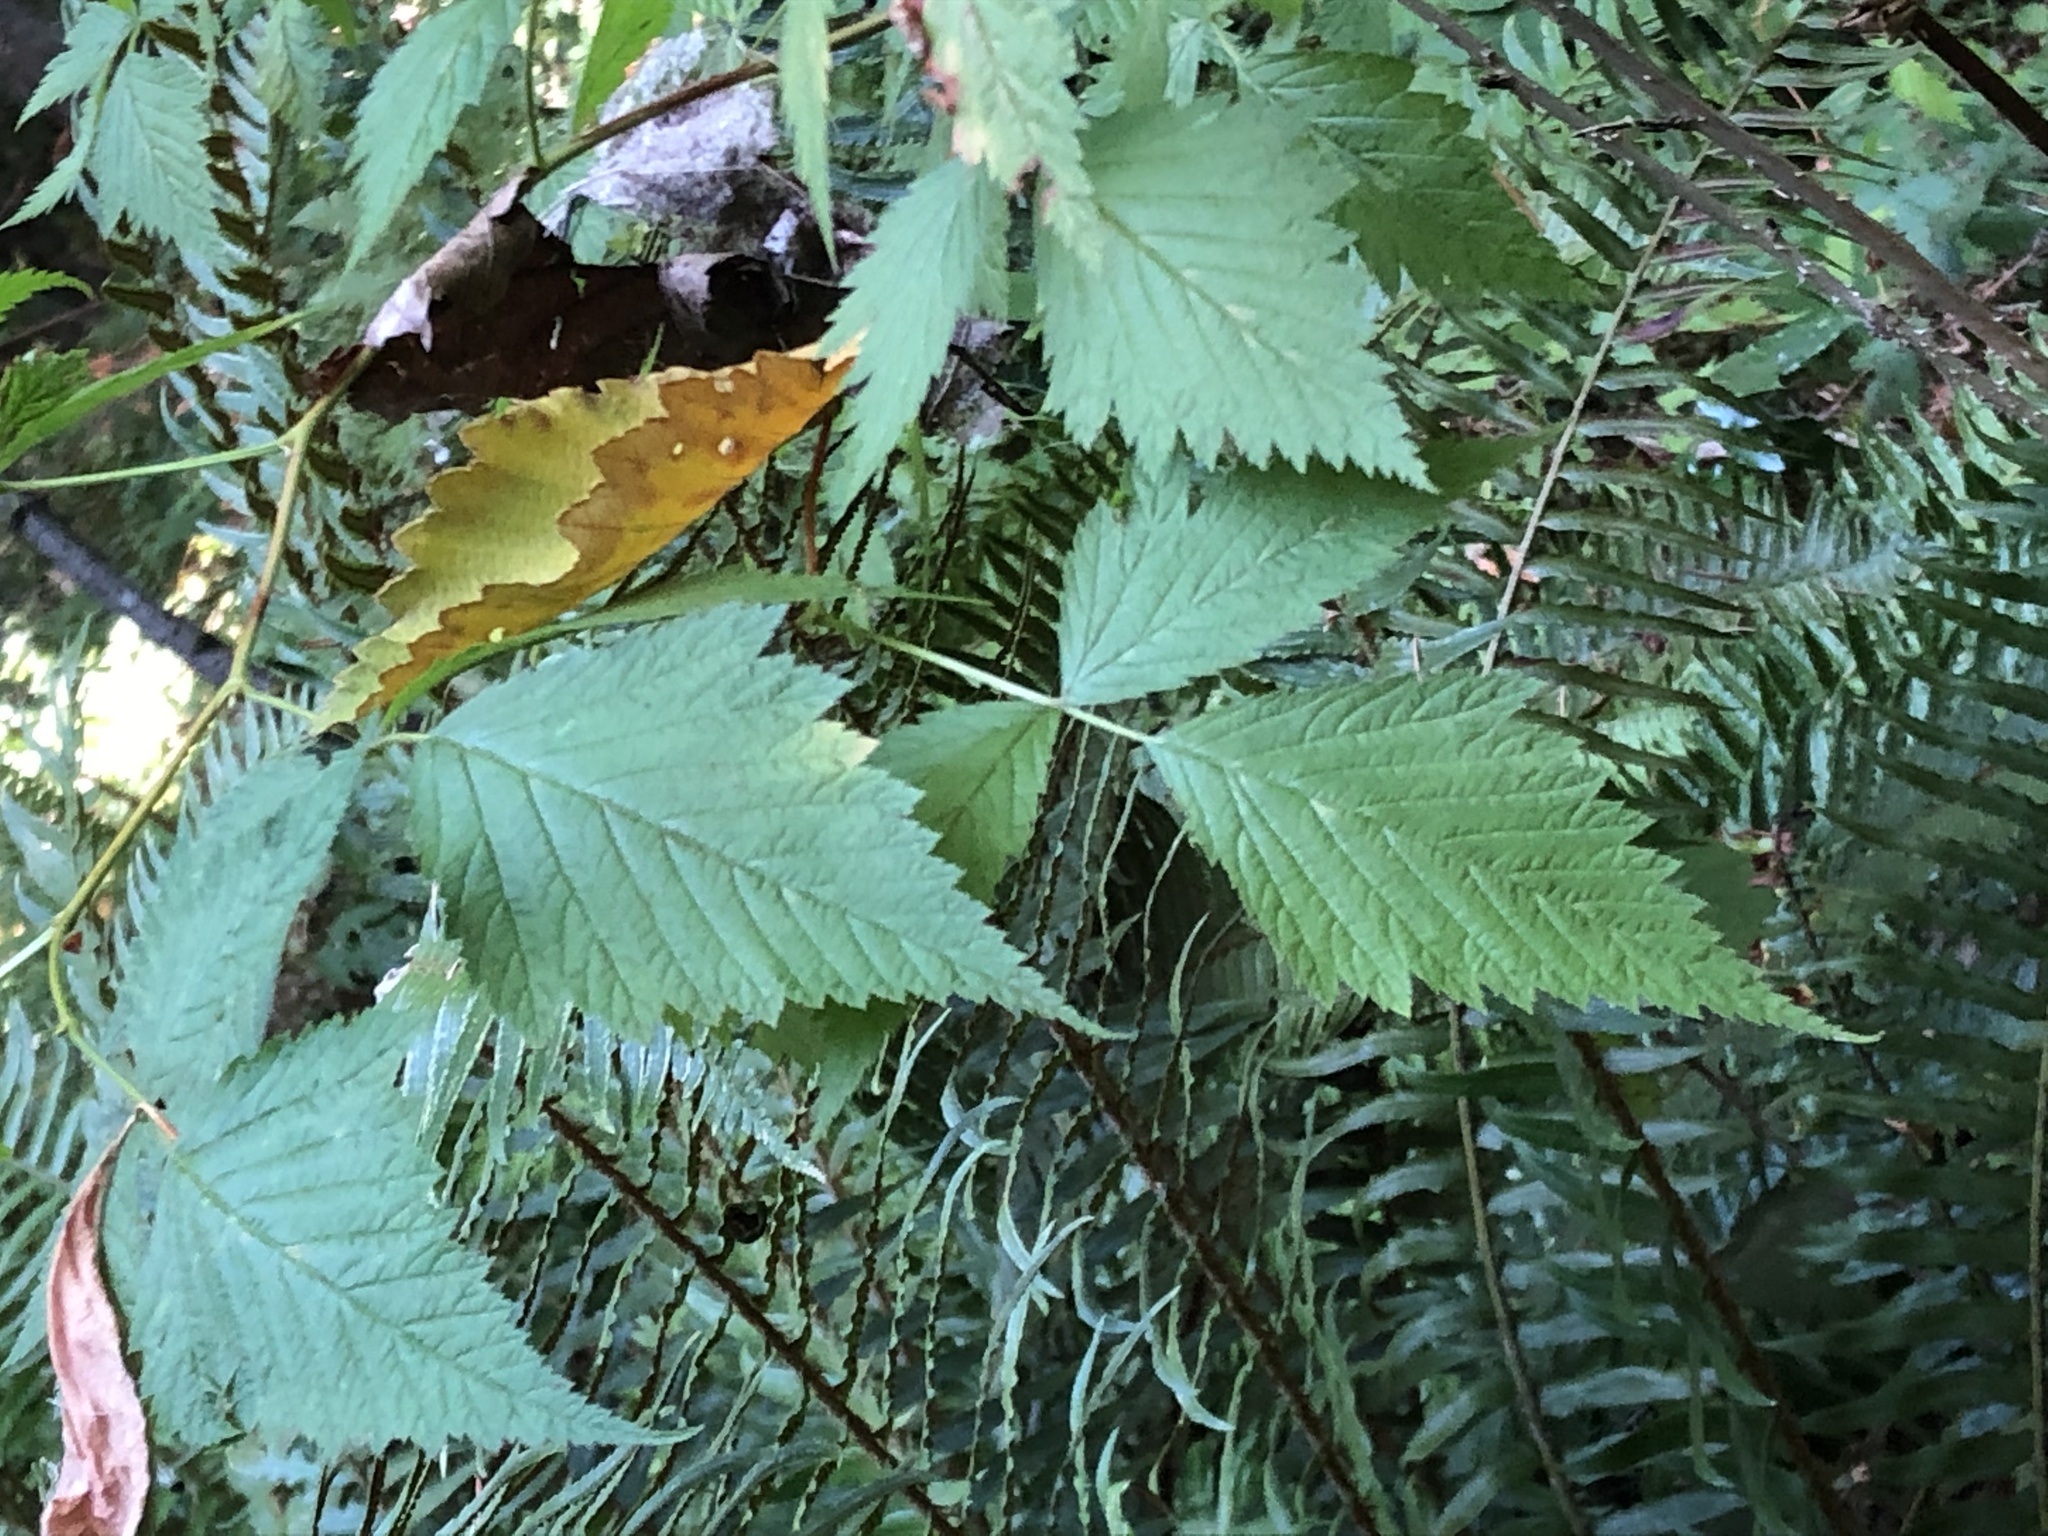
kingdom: Plantae
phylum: Tracheophyta
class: Magnoliopsida
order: Rosales
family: Rosaceae
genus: Rubus
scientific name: Rubus spectabilis
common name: Salmonberry
